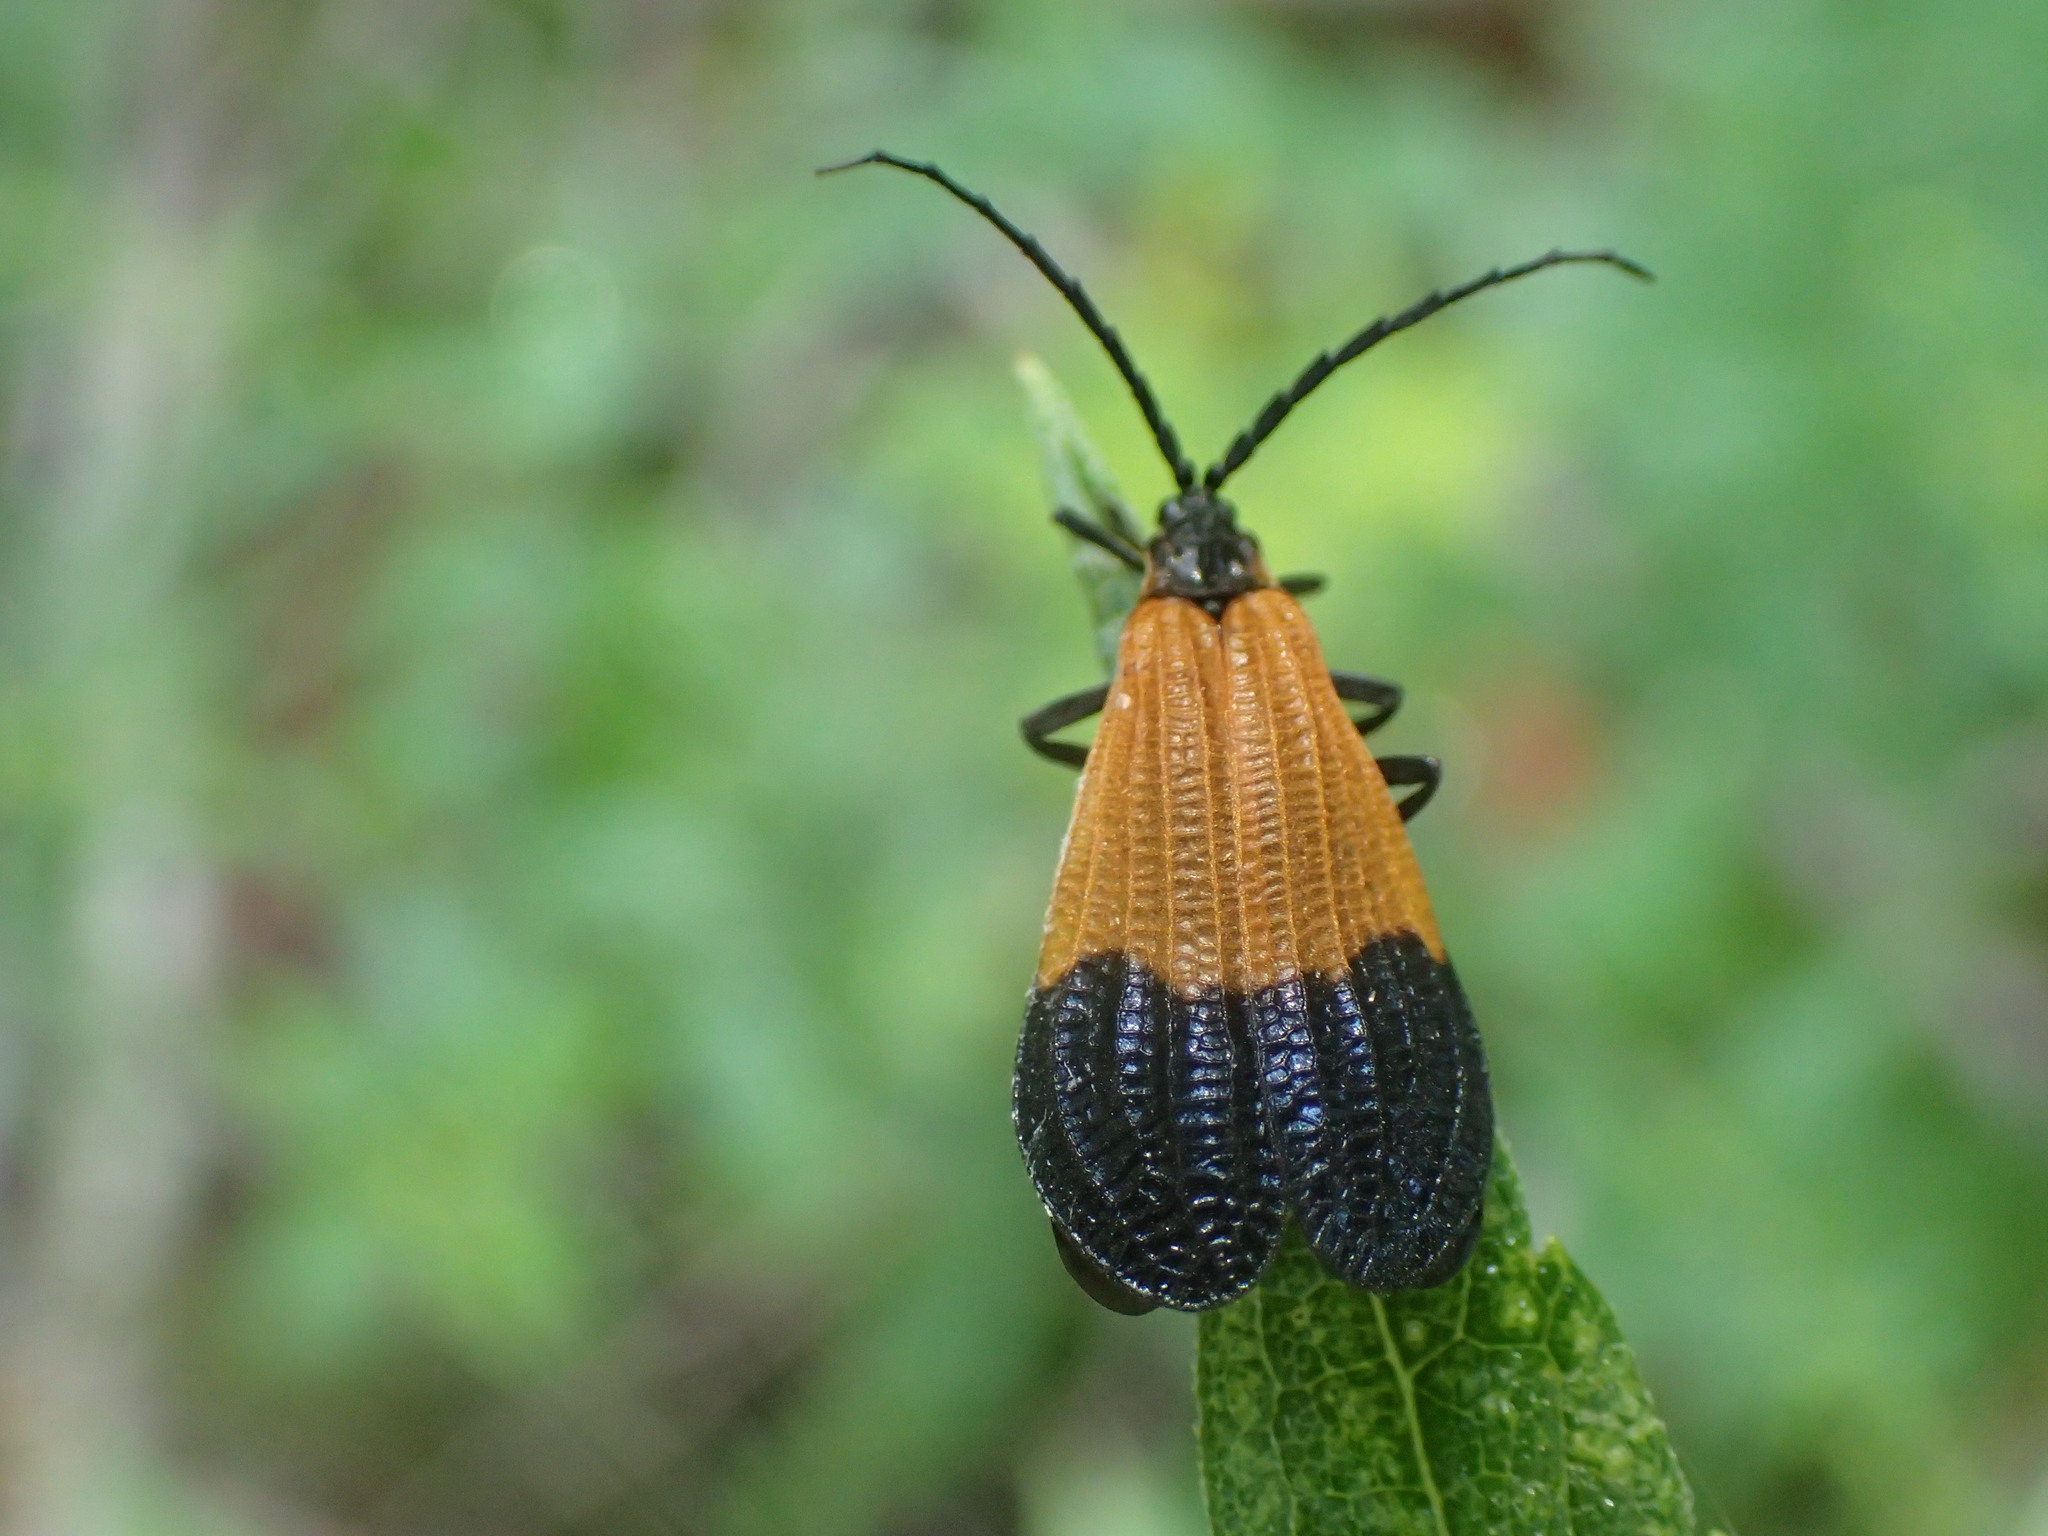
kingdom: Animalia
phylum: Arthropoda
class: Insecta
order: Coleoptera
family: Lycidae
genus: Calopteron
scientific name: Calopteron terminale
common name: End band net-winged beetle
